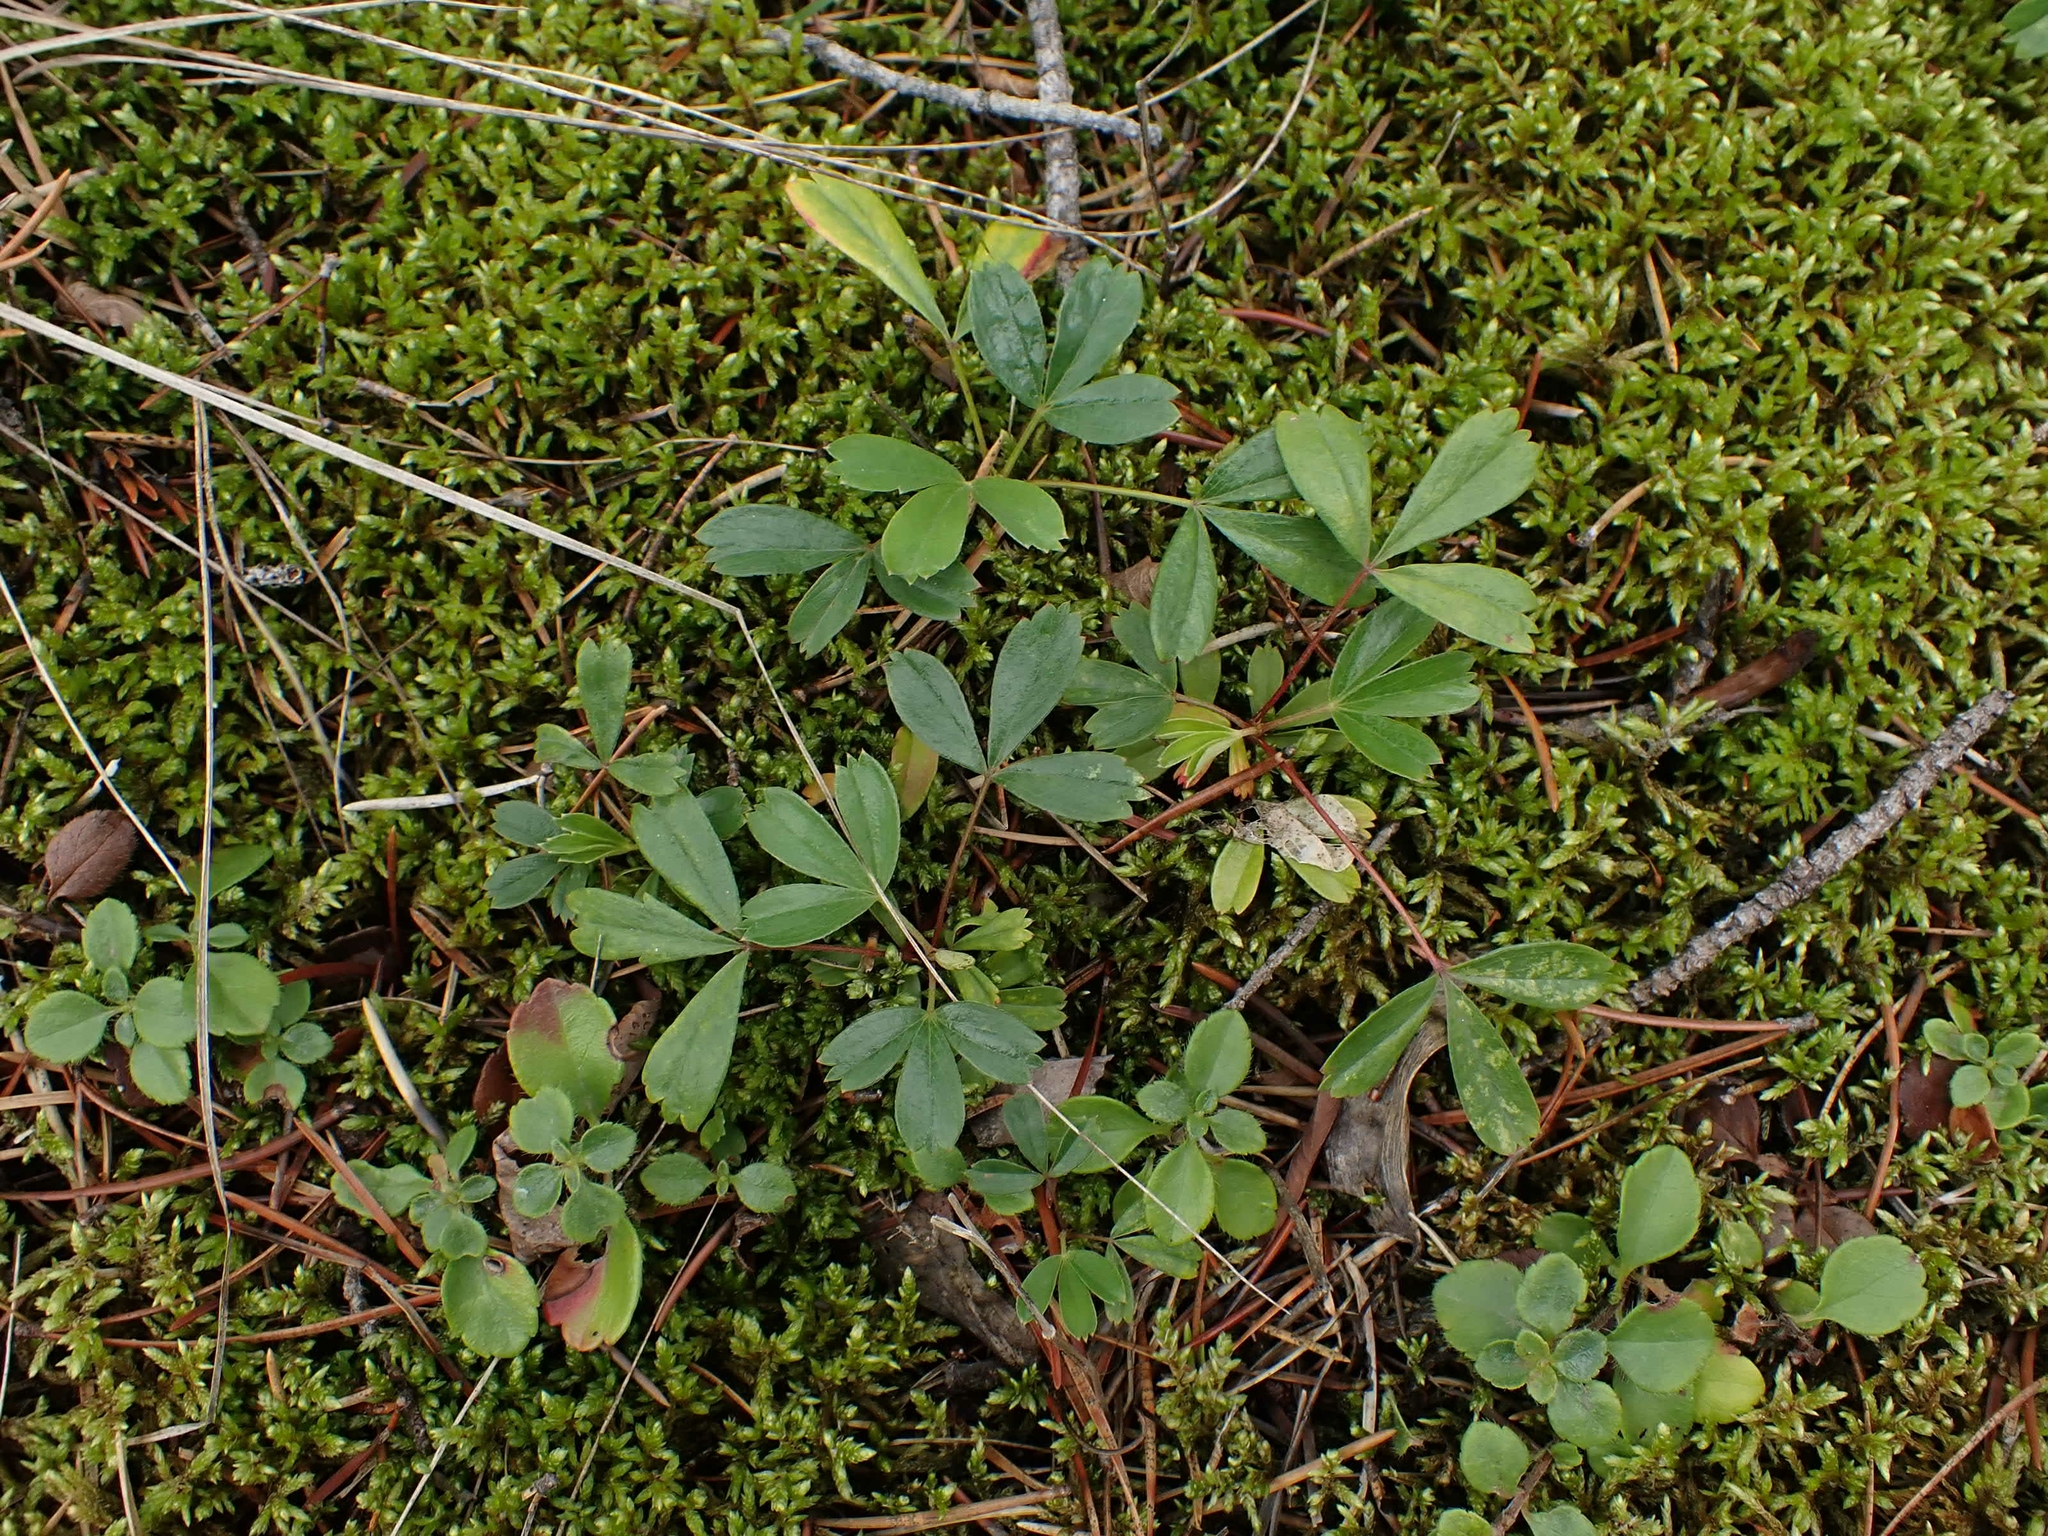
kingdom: Plantae
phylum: Tracheophyta
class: Magnoliopsida
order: Rosales
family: Rosaceae
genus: Sibbaldia
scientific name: Sibbaldia tridentata
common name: Three-toothed cinquefoil
